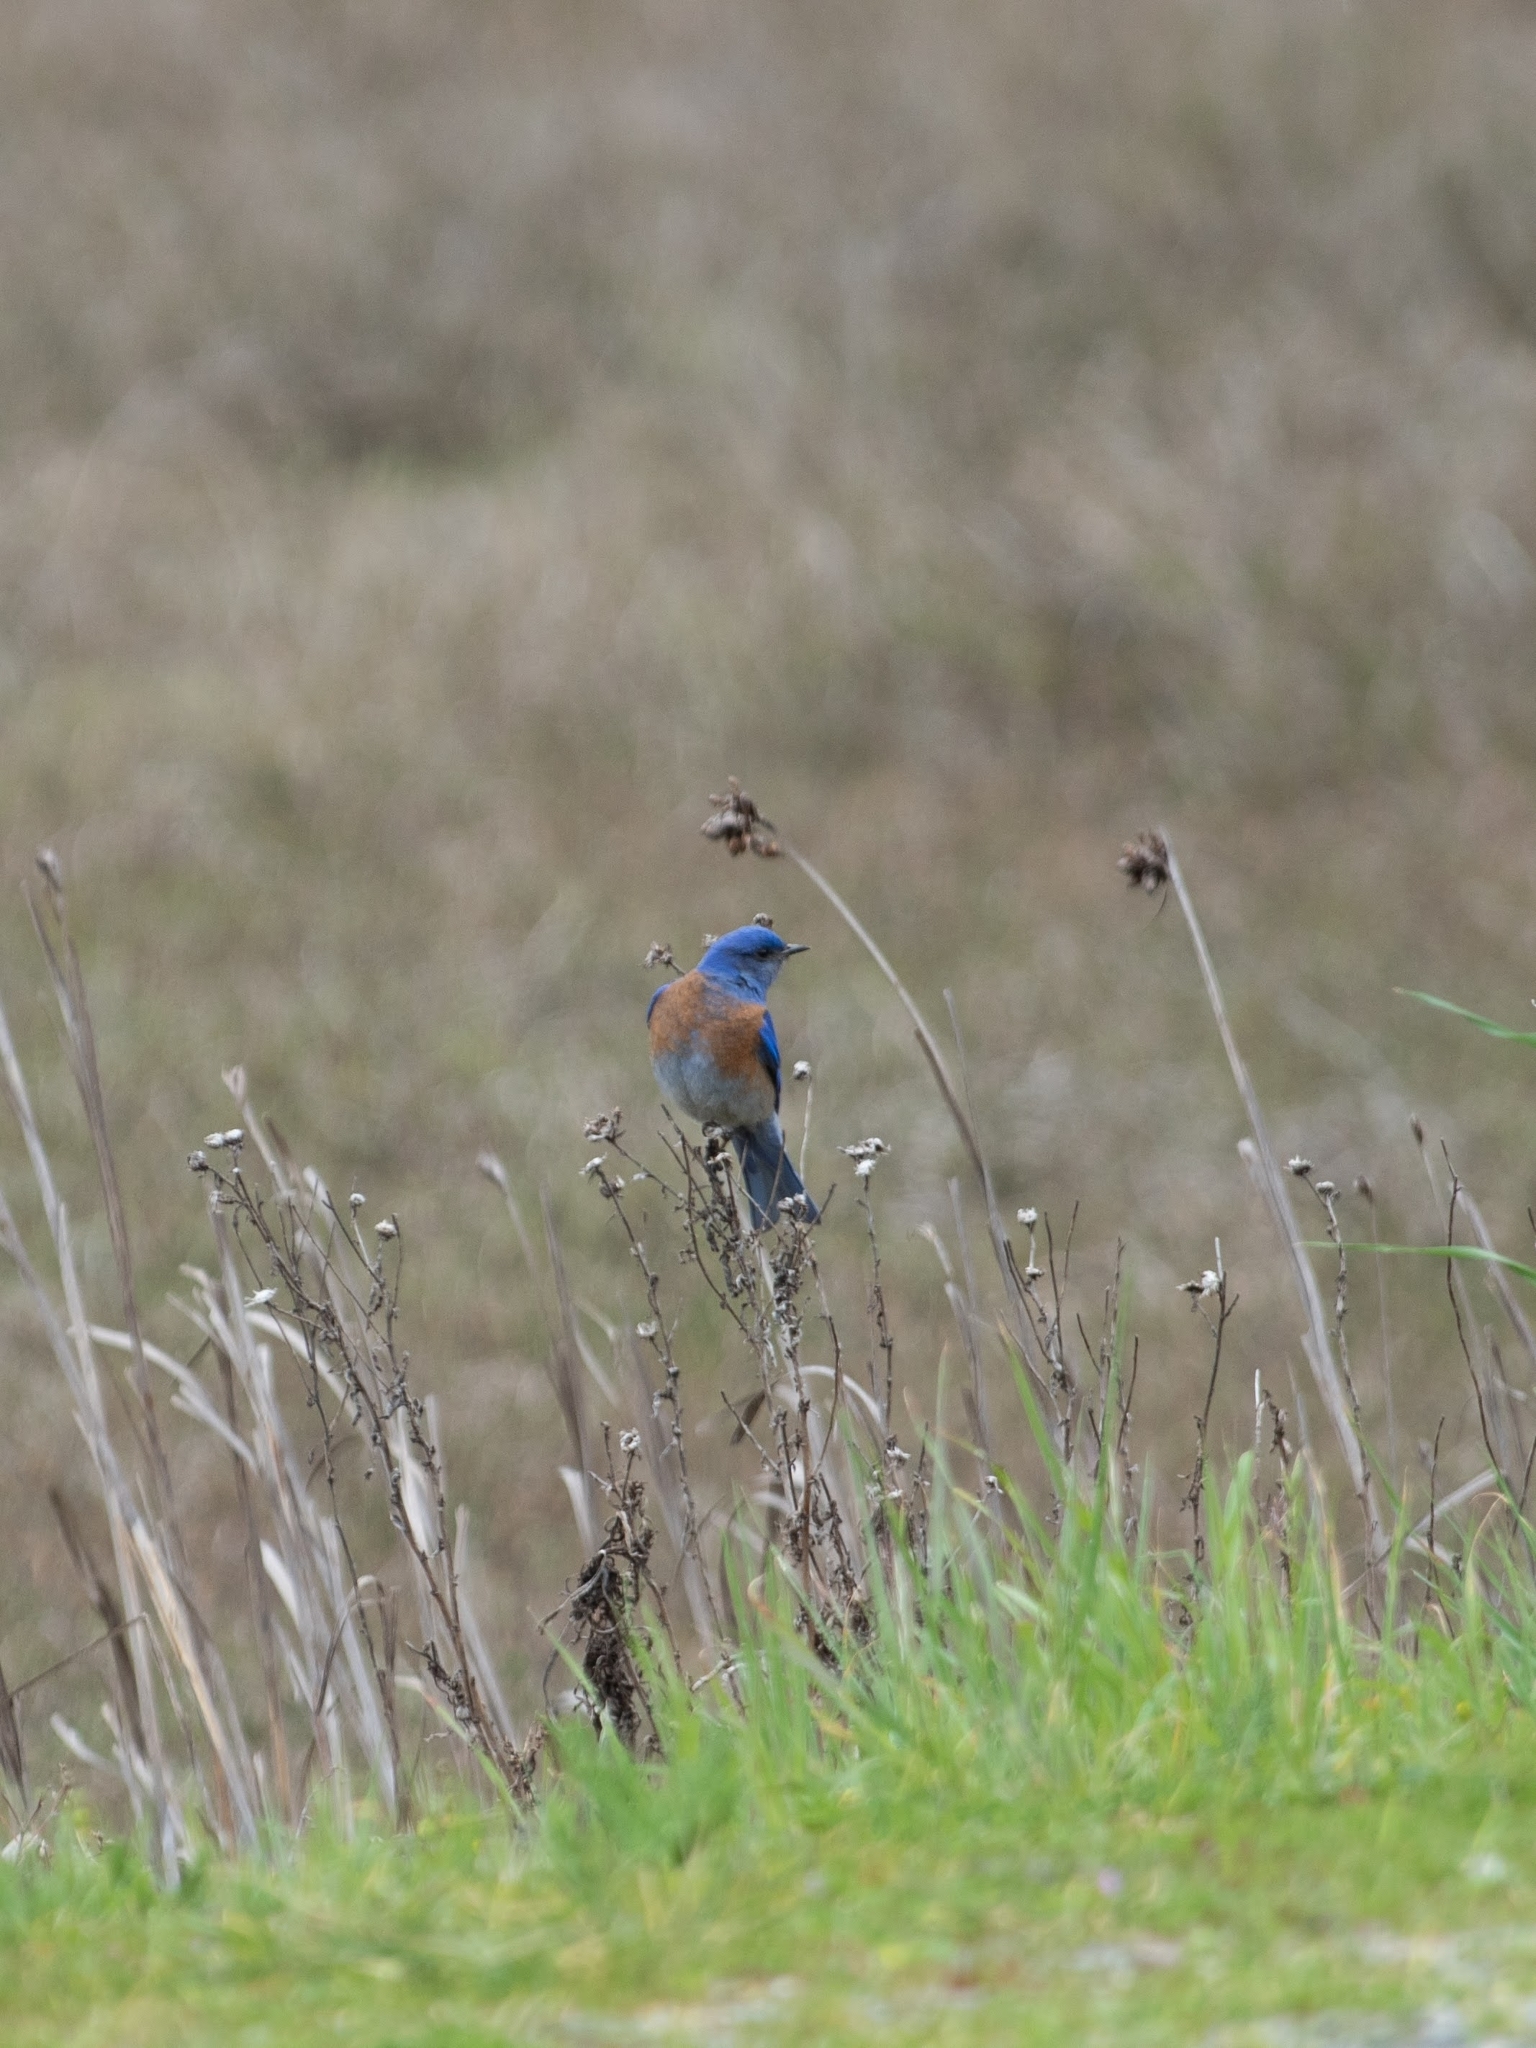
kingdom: Animalia
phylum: Chordata
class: Aves
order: Passeriformes
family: Turdidae
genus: Sialia
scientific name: Sialia mexicana
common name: Western bluebird
